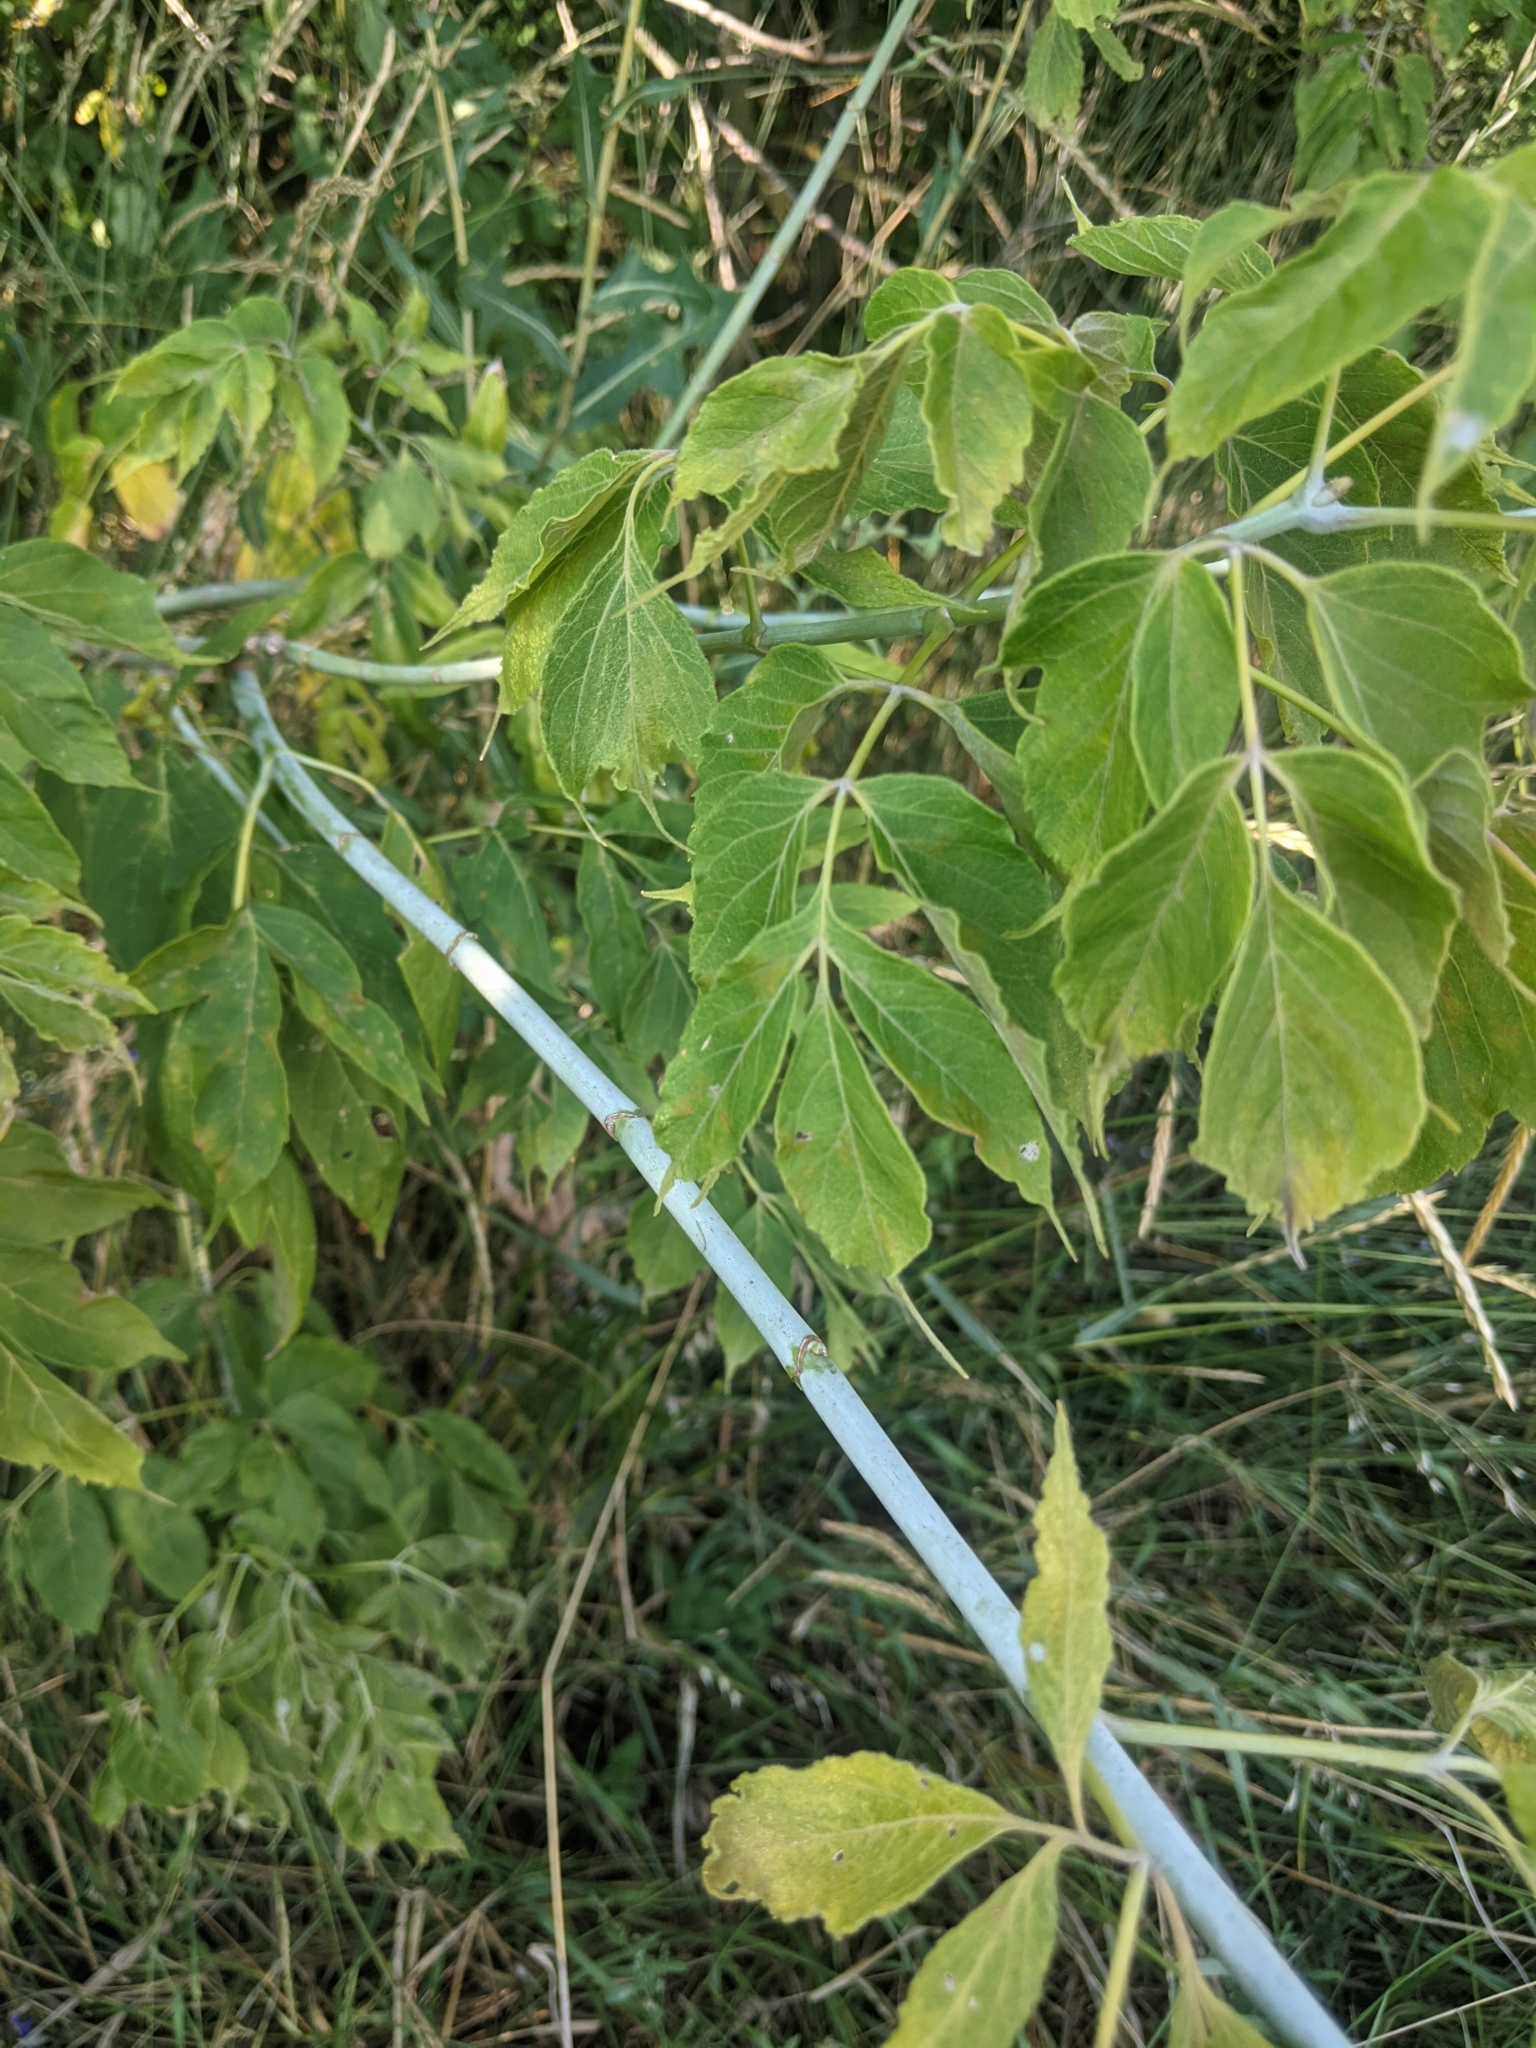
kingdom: Plantae
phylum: Tracheophyta
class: Magnoliopsida
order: Sapindales
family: Sapindaceae
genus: Acer
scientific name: Acer negundo
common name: Ashleaf maple
